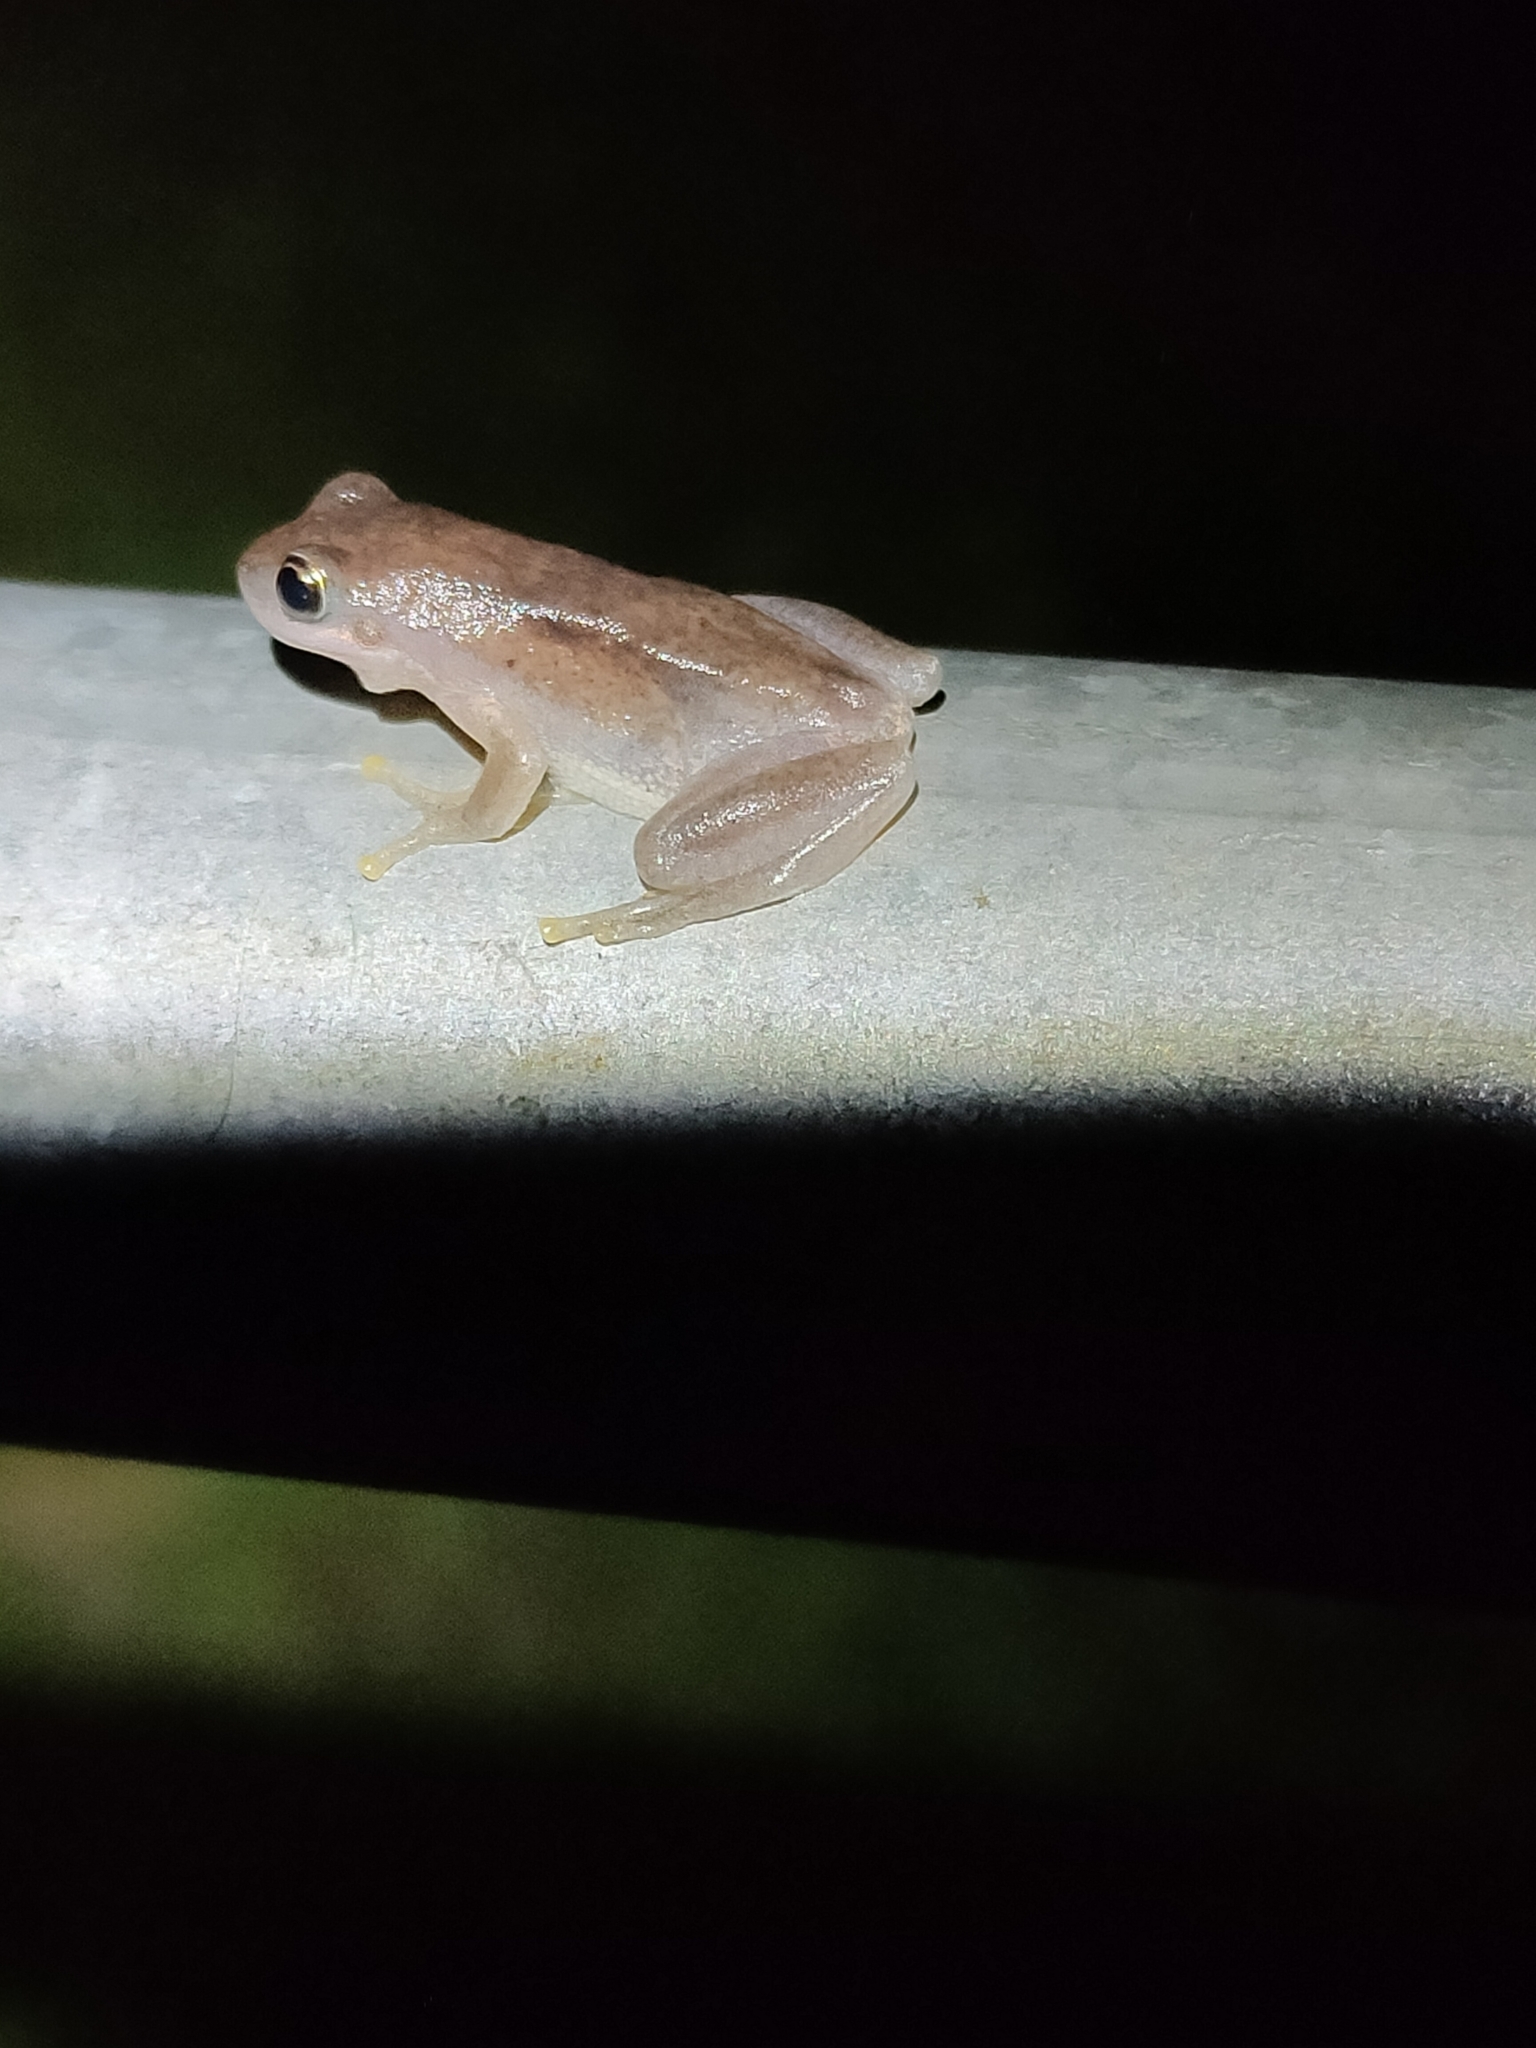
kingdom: Animalia
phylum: Chordata
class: Amphibia
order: Anura
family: Pelodryadidae
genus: Litoria
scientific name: Litoria rubella
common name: Desert tree frog
